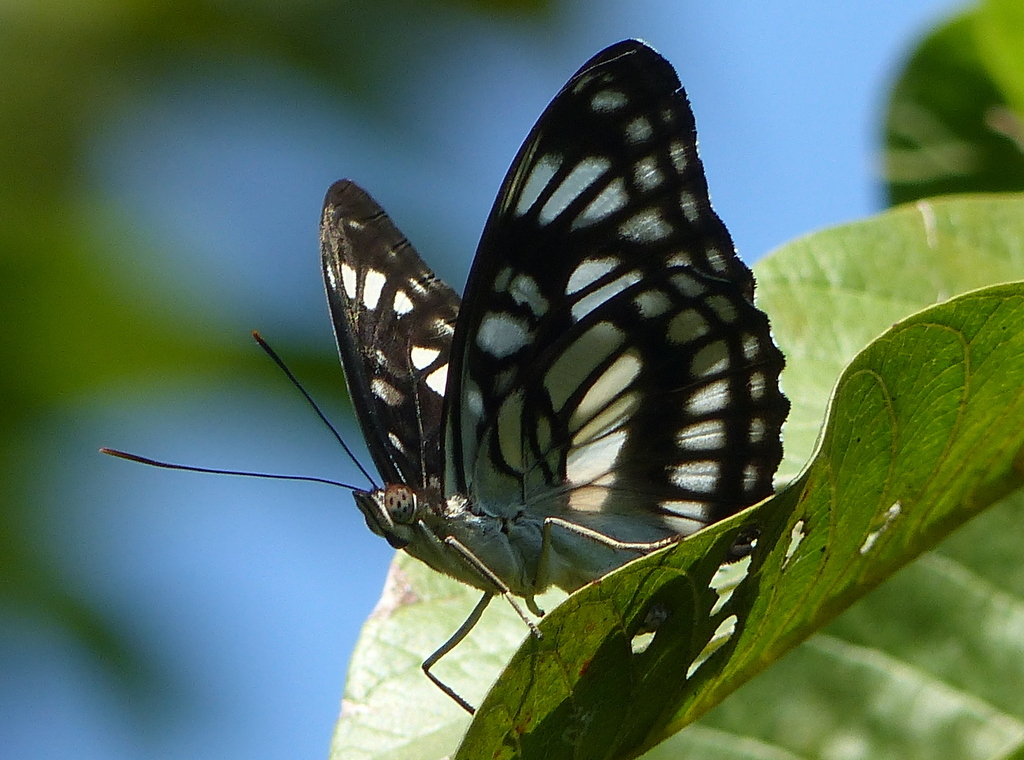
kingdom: Animalia
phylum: Arthropoda
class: Insecta
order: Lepidoptera
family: Nymphalidae
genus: Parathyma
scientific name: Parathyma ranga
